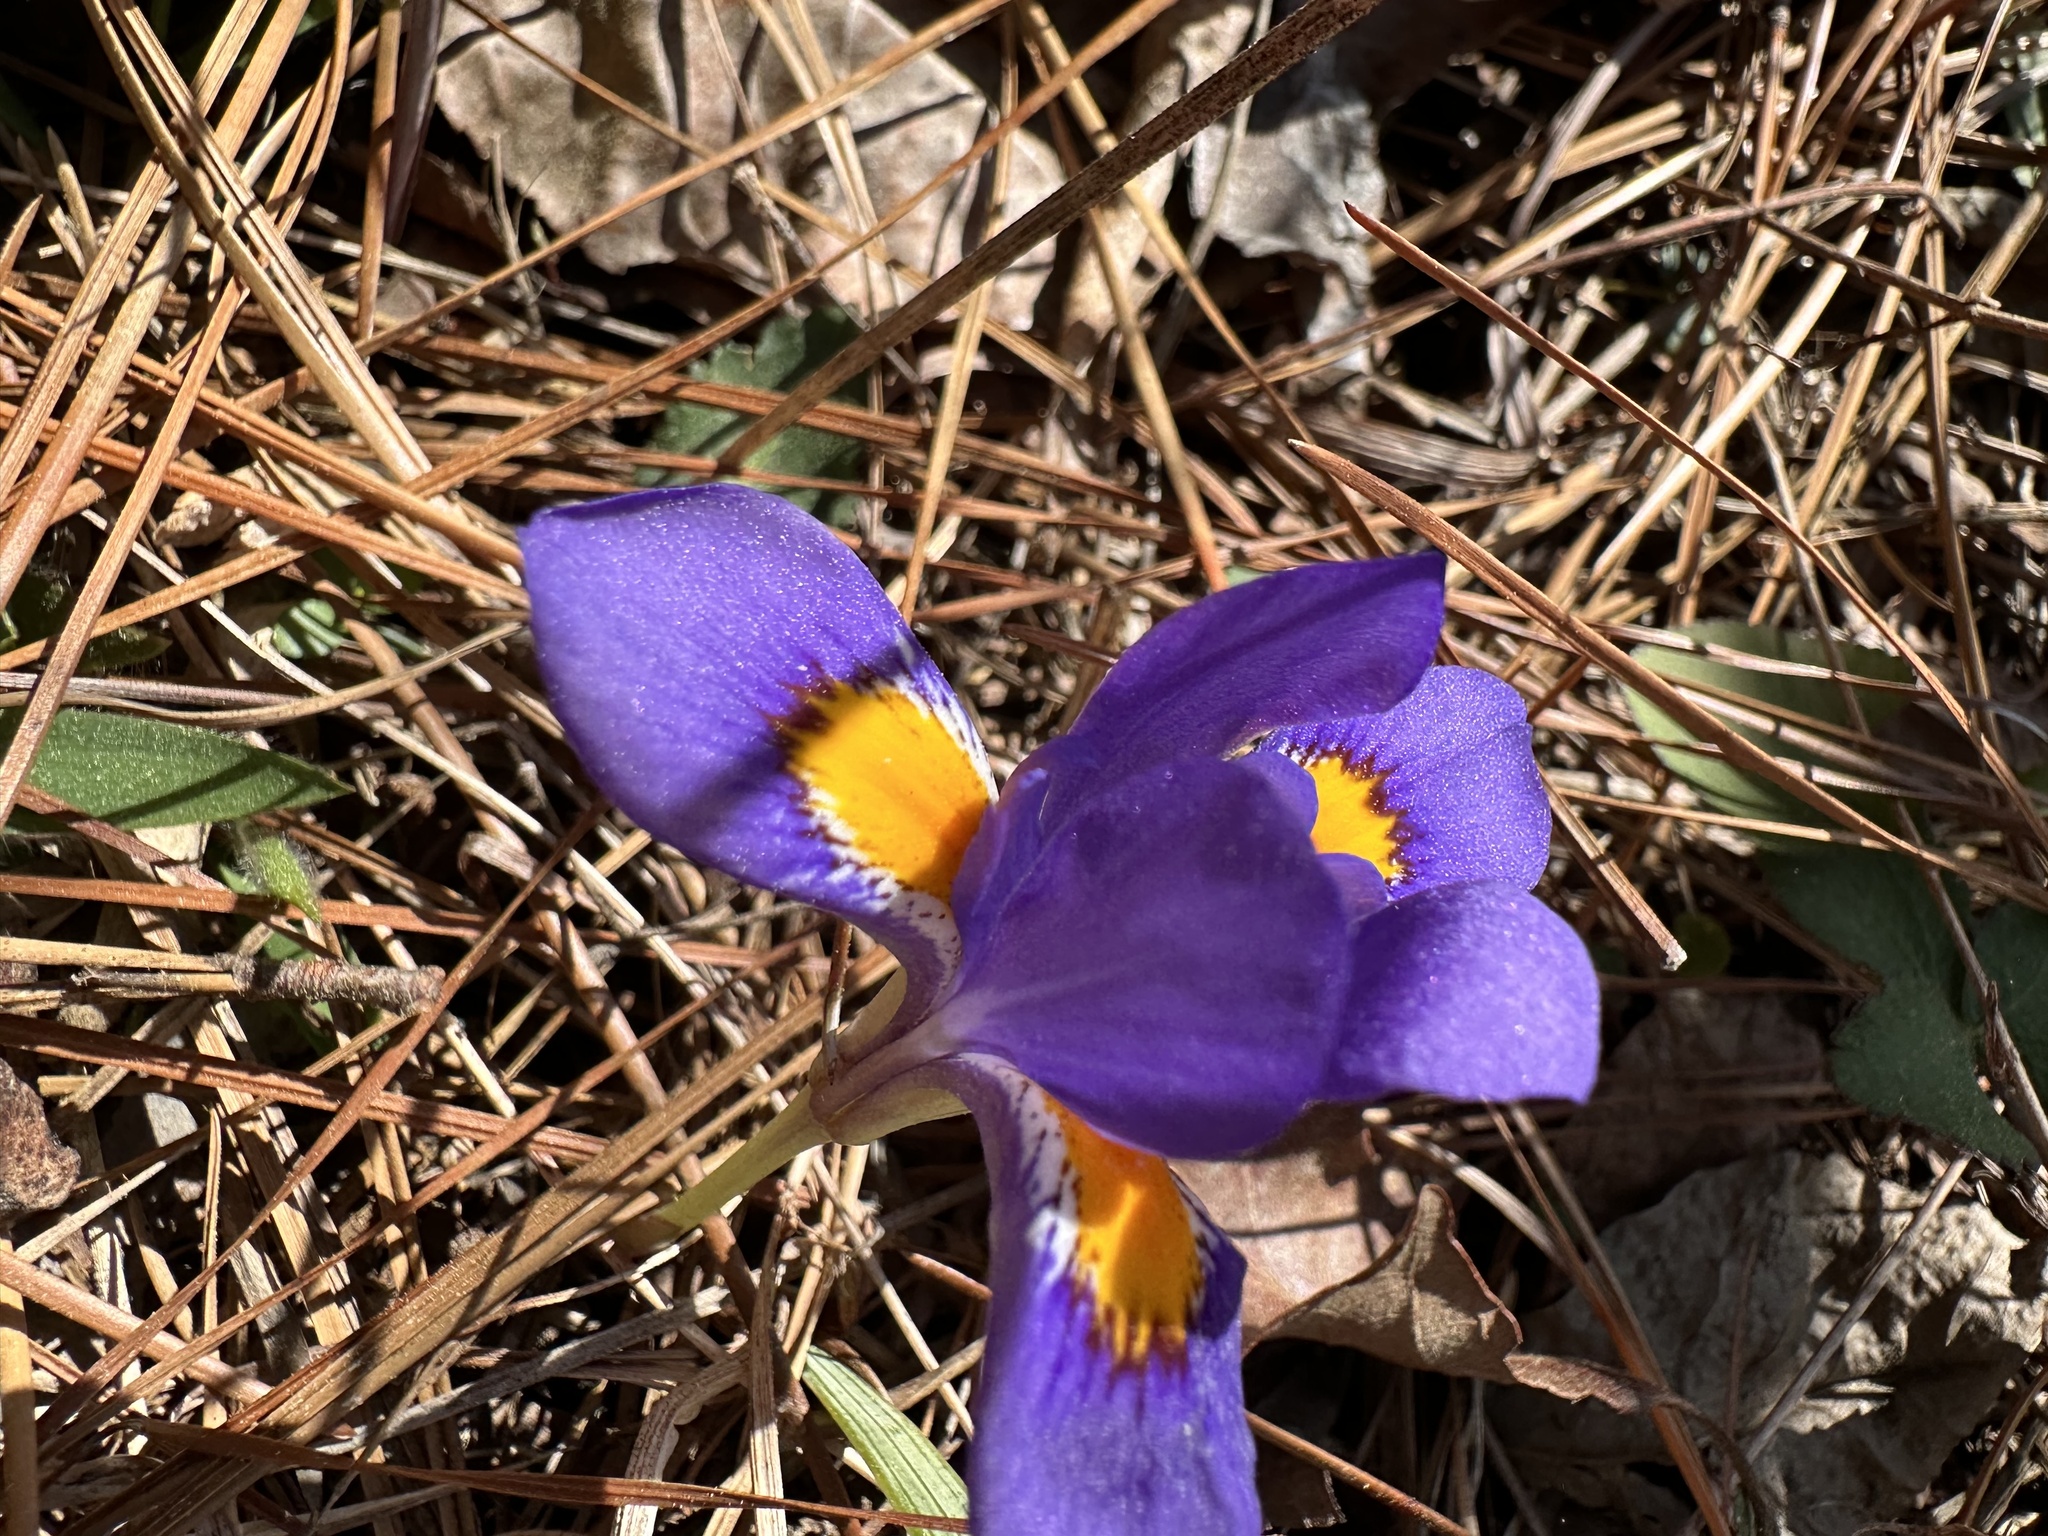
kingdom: Plantae
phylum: Tracheophyta
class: Liliopsida
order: Asparagales
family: Iridaceae
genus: Iris
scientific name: Iris verna
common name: Dwarf iris
